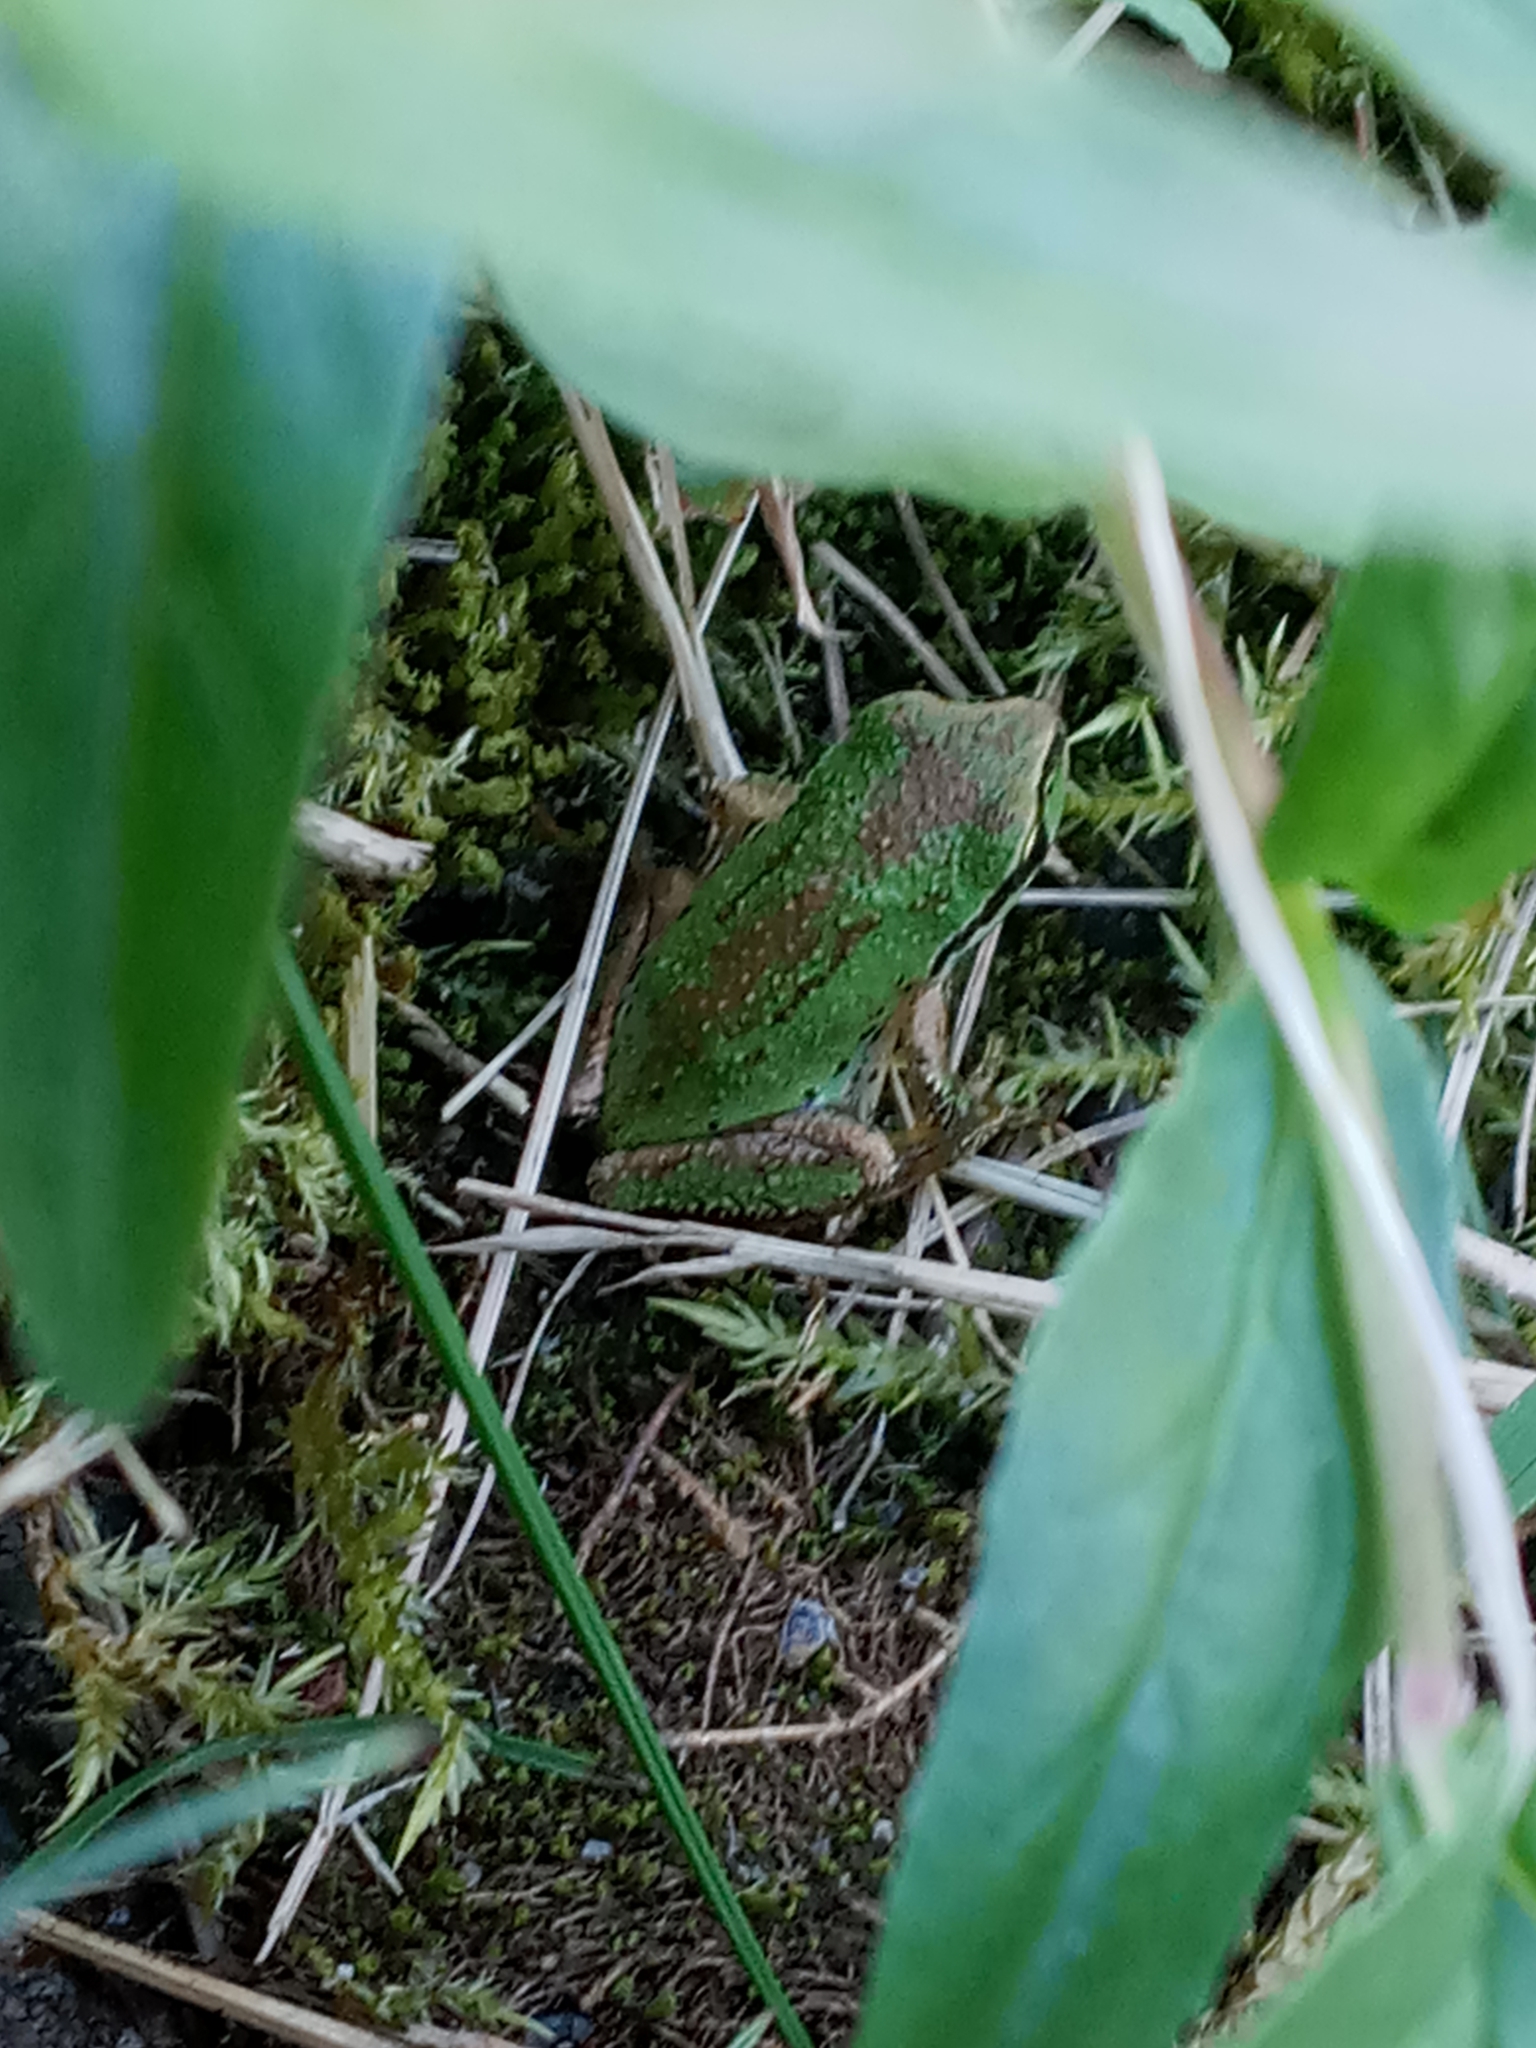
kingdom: Animalia
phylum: Chordata
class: Amphibia
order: Anura
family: Hylidae
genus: Pseudacris
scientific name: Pseudacris regilla
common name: Pacific chorus frog
